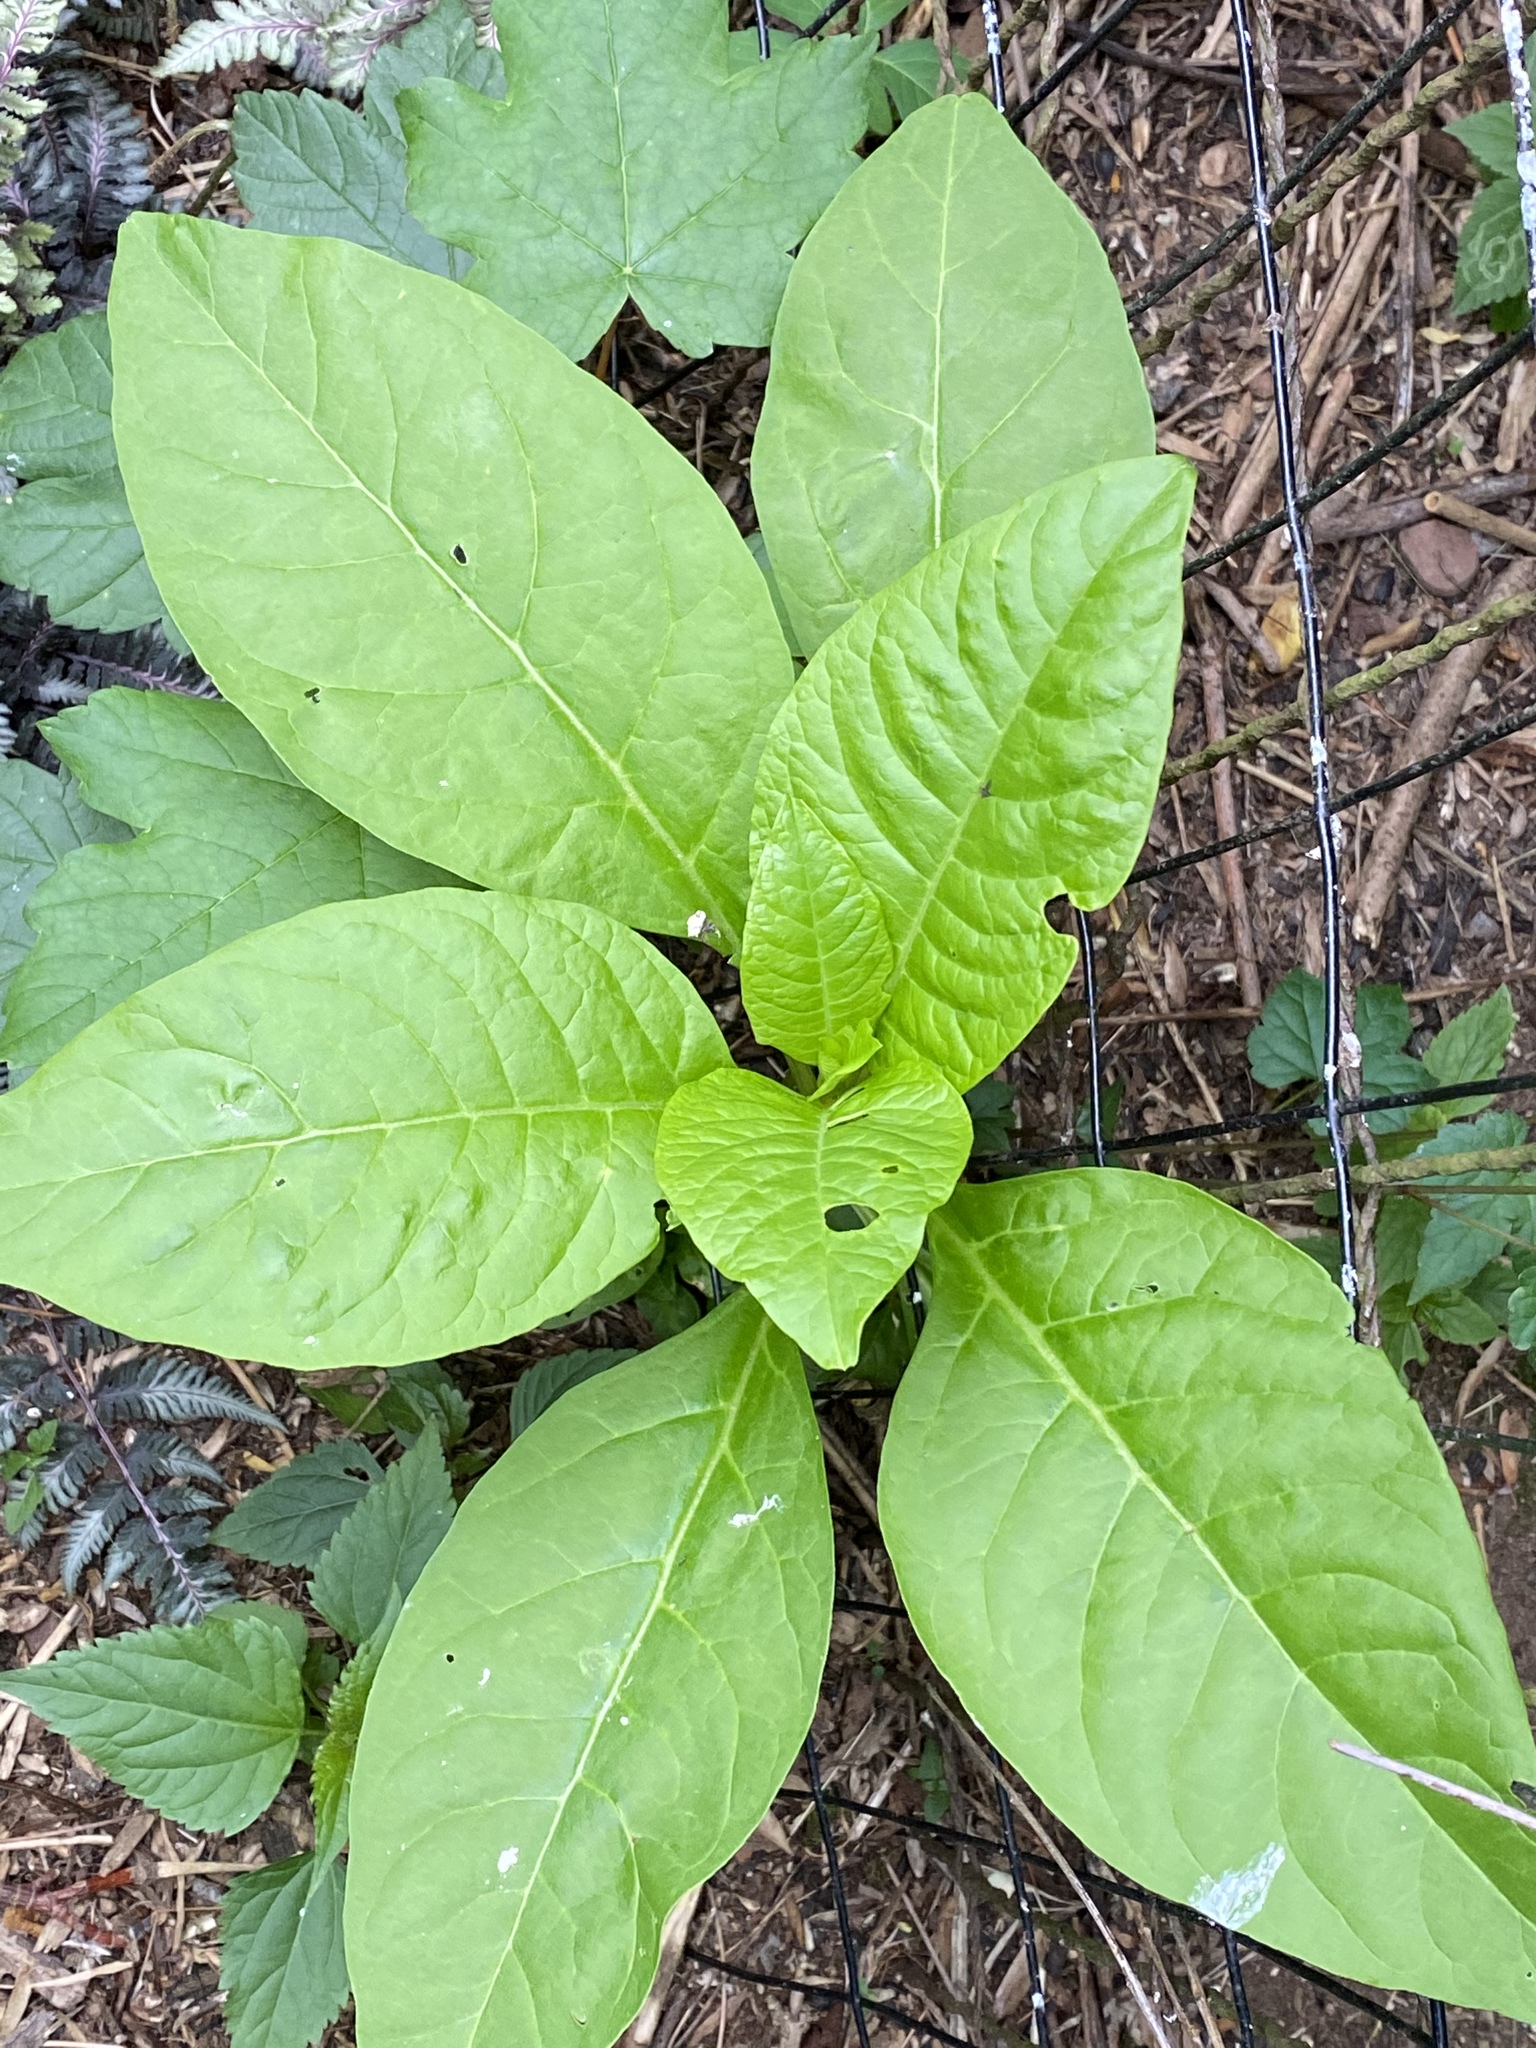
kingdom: Plantae
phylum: Tracheophyta
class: Magnoliopsida
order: Caryophyllales
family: Phytolaccaceae
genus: Phytolacca
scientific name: Phytolacca americana
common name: American pokeweed
